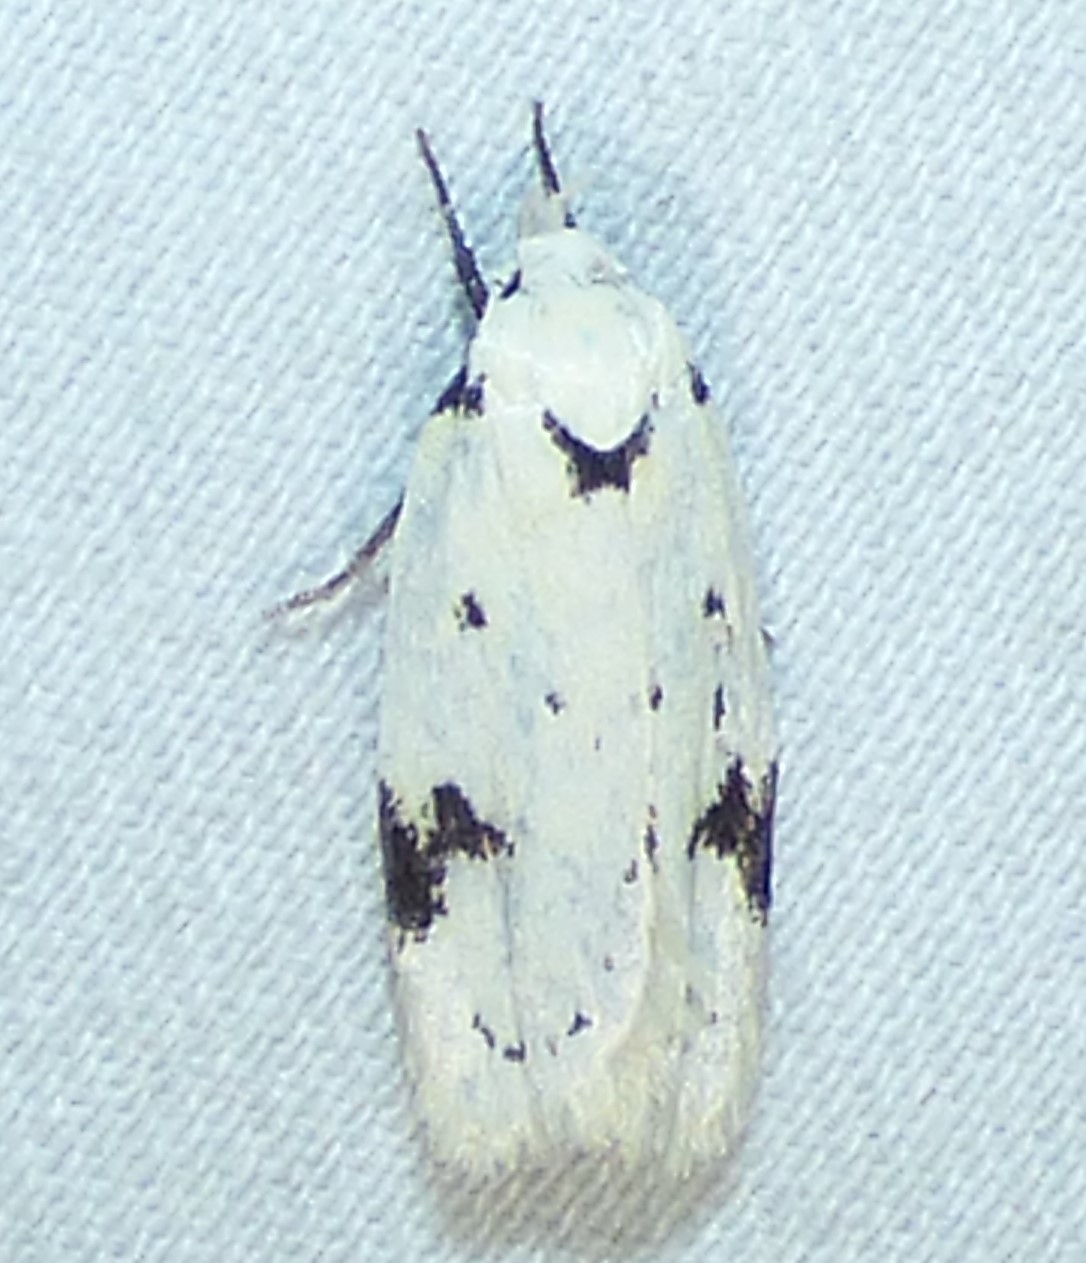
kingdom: Animalia
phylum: Arthropoda
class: Insecta
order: Lepidoptera
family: Oecophoridae
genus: Inga
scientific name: Inga sparsiciliella
